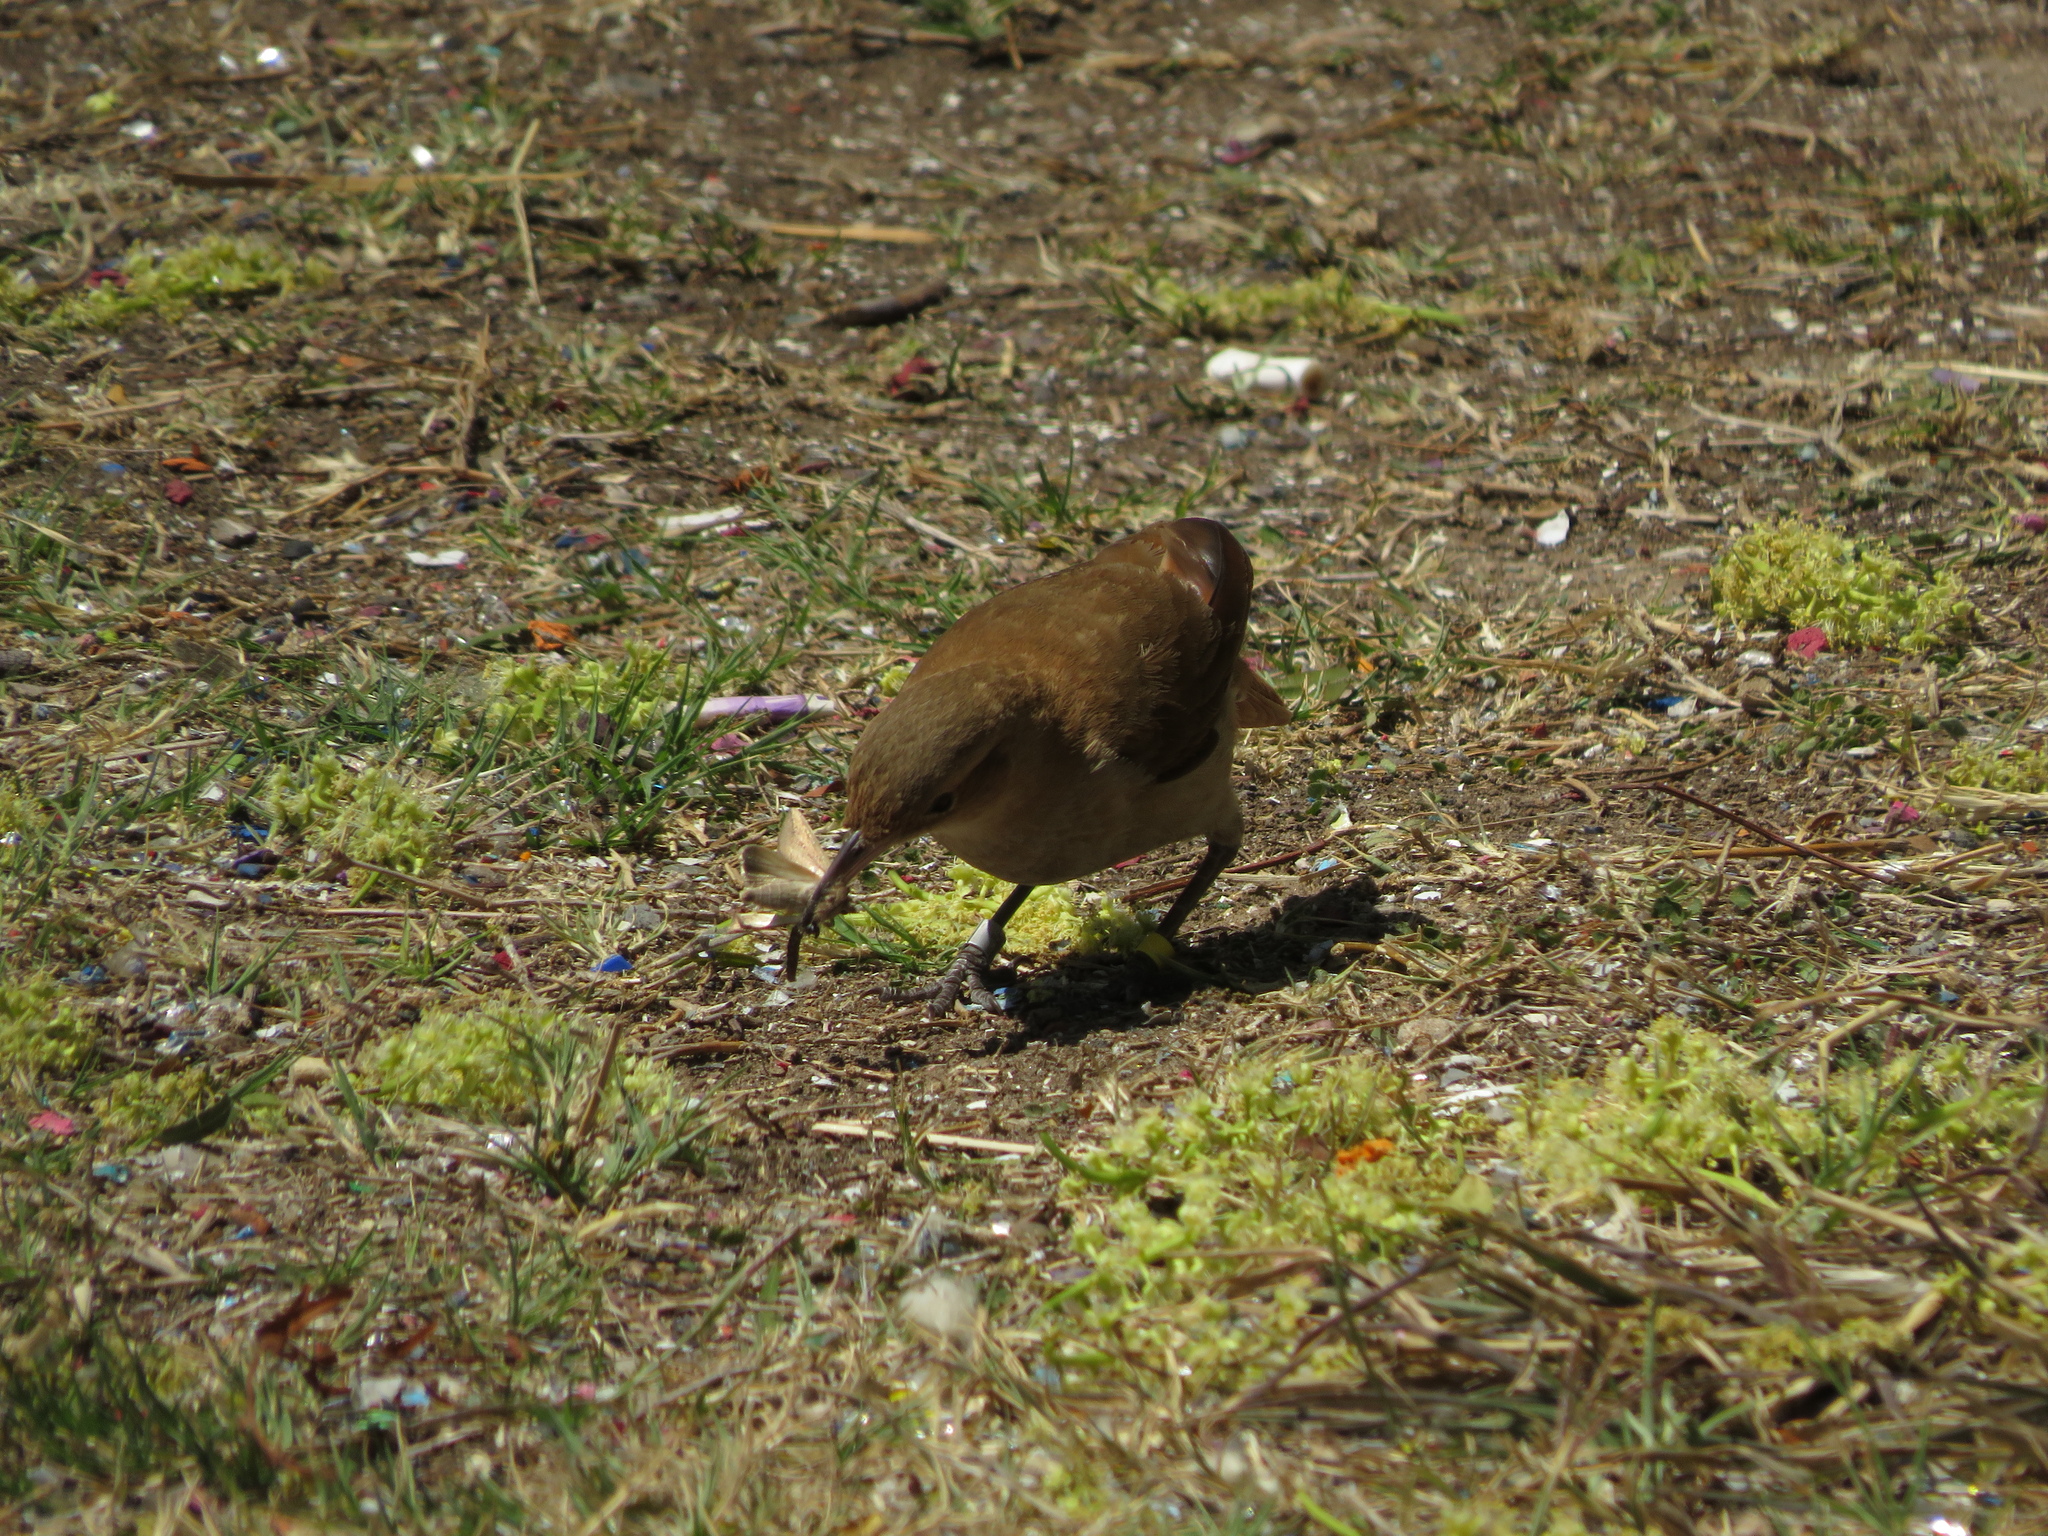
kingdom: Animalia
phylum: Chordata
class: Aves
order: Passeriformes
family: Furnariidae
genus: Furnarius
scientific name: Furnarius rufus
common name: Rufous hornero
